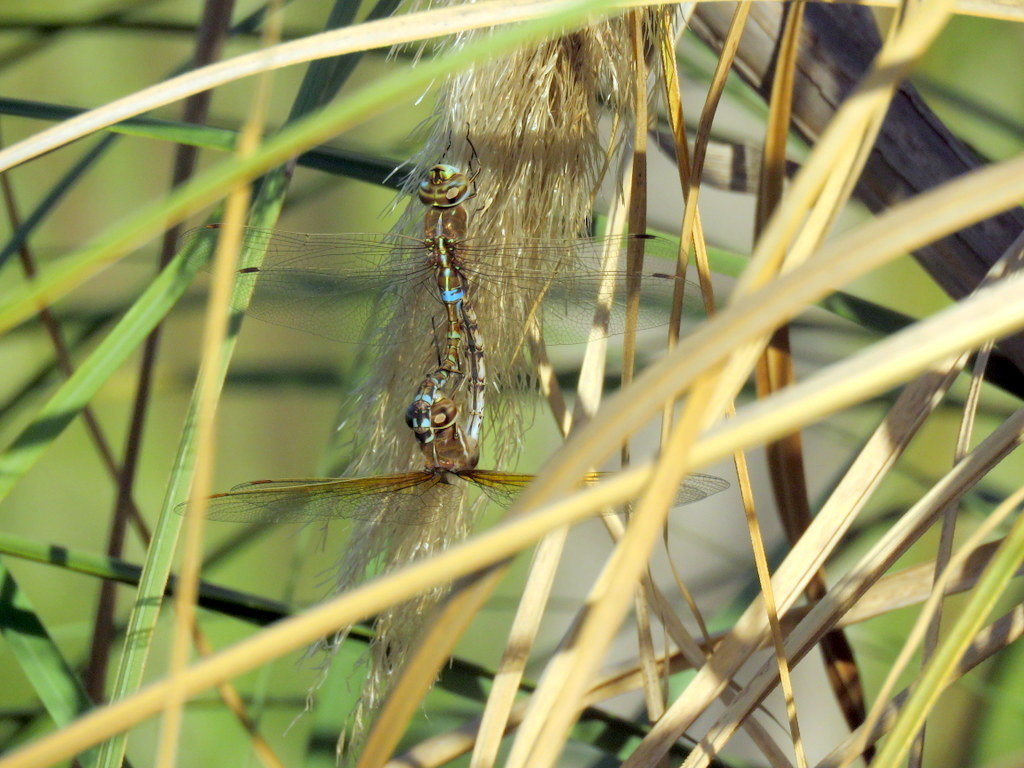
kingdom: Animalia
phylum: Arthropoda
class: Insecta
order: Odonata
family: Aeshnidae
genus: Rhionaeschna
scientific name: Rhionaeschna bonariensis
